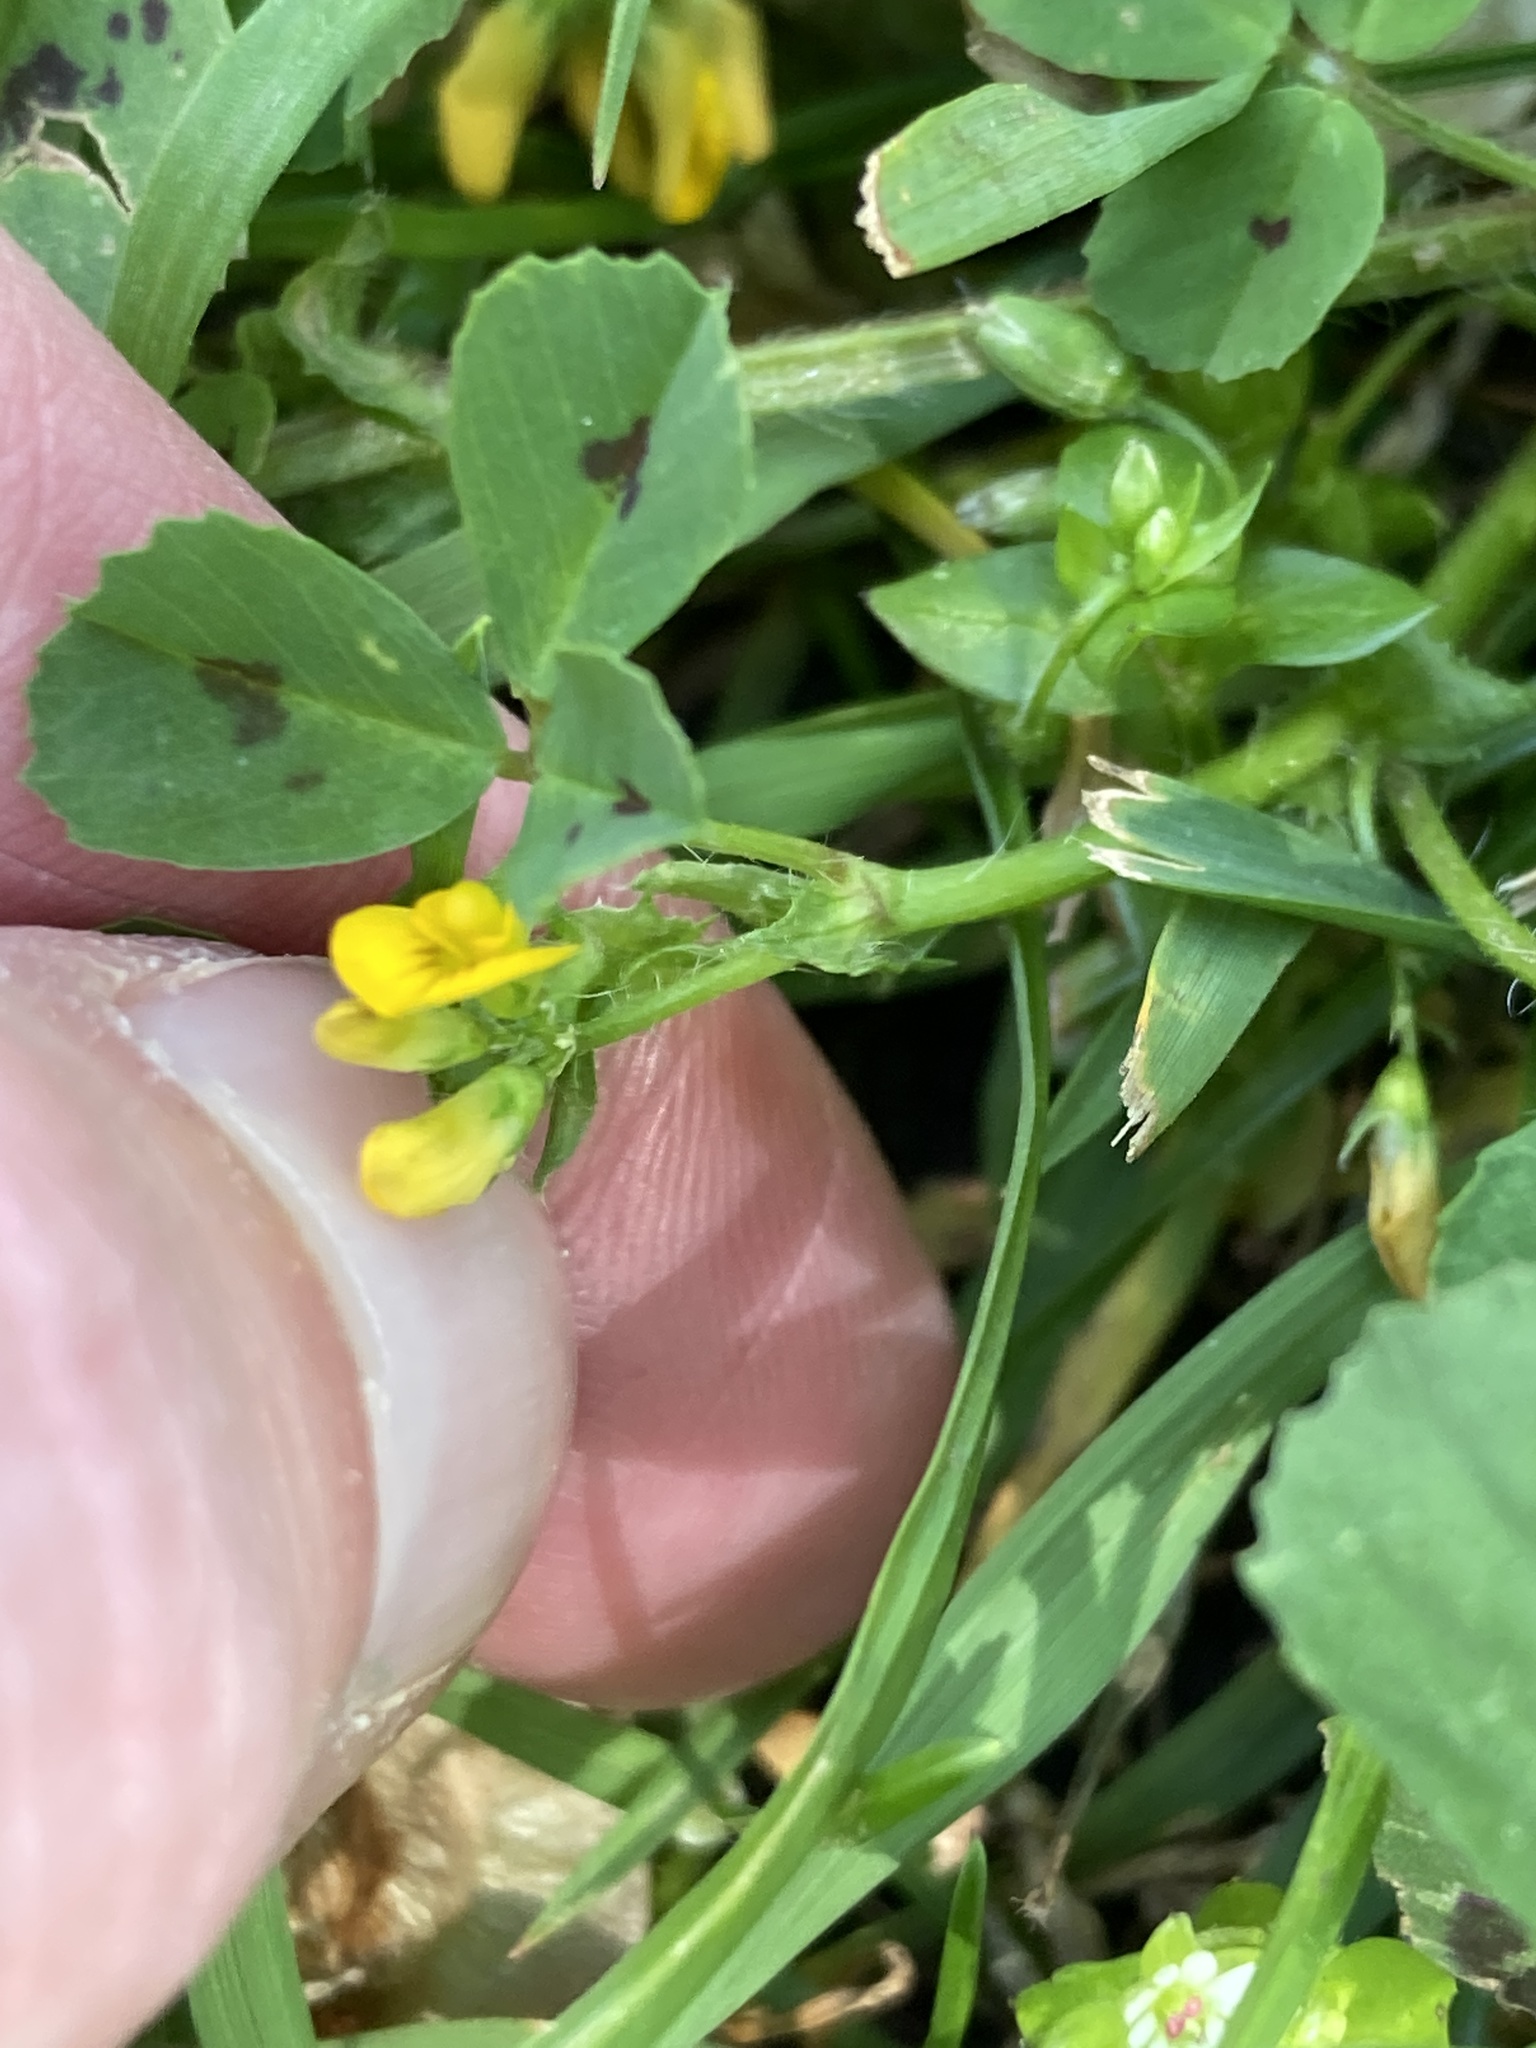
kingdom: Plantae
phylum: Tracheophyta
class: Magnoliopsida
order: Fabales
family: Fabaceae
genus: Medicago
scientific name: Medicago arabica
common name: Spotted medick
